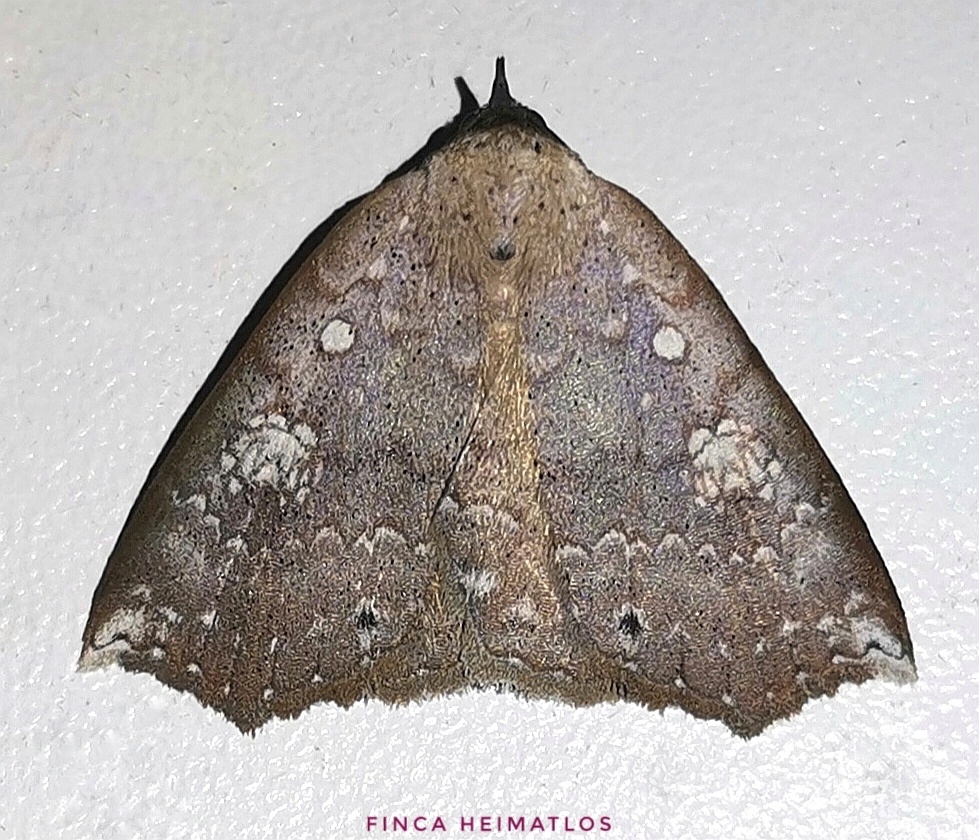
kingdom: Animalia
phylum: Arthropoda
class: Insecta
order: Lepidoptera
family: Erebidae
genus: Isogona
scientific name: Isogona albistellata
